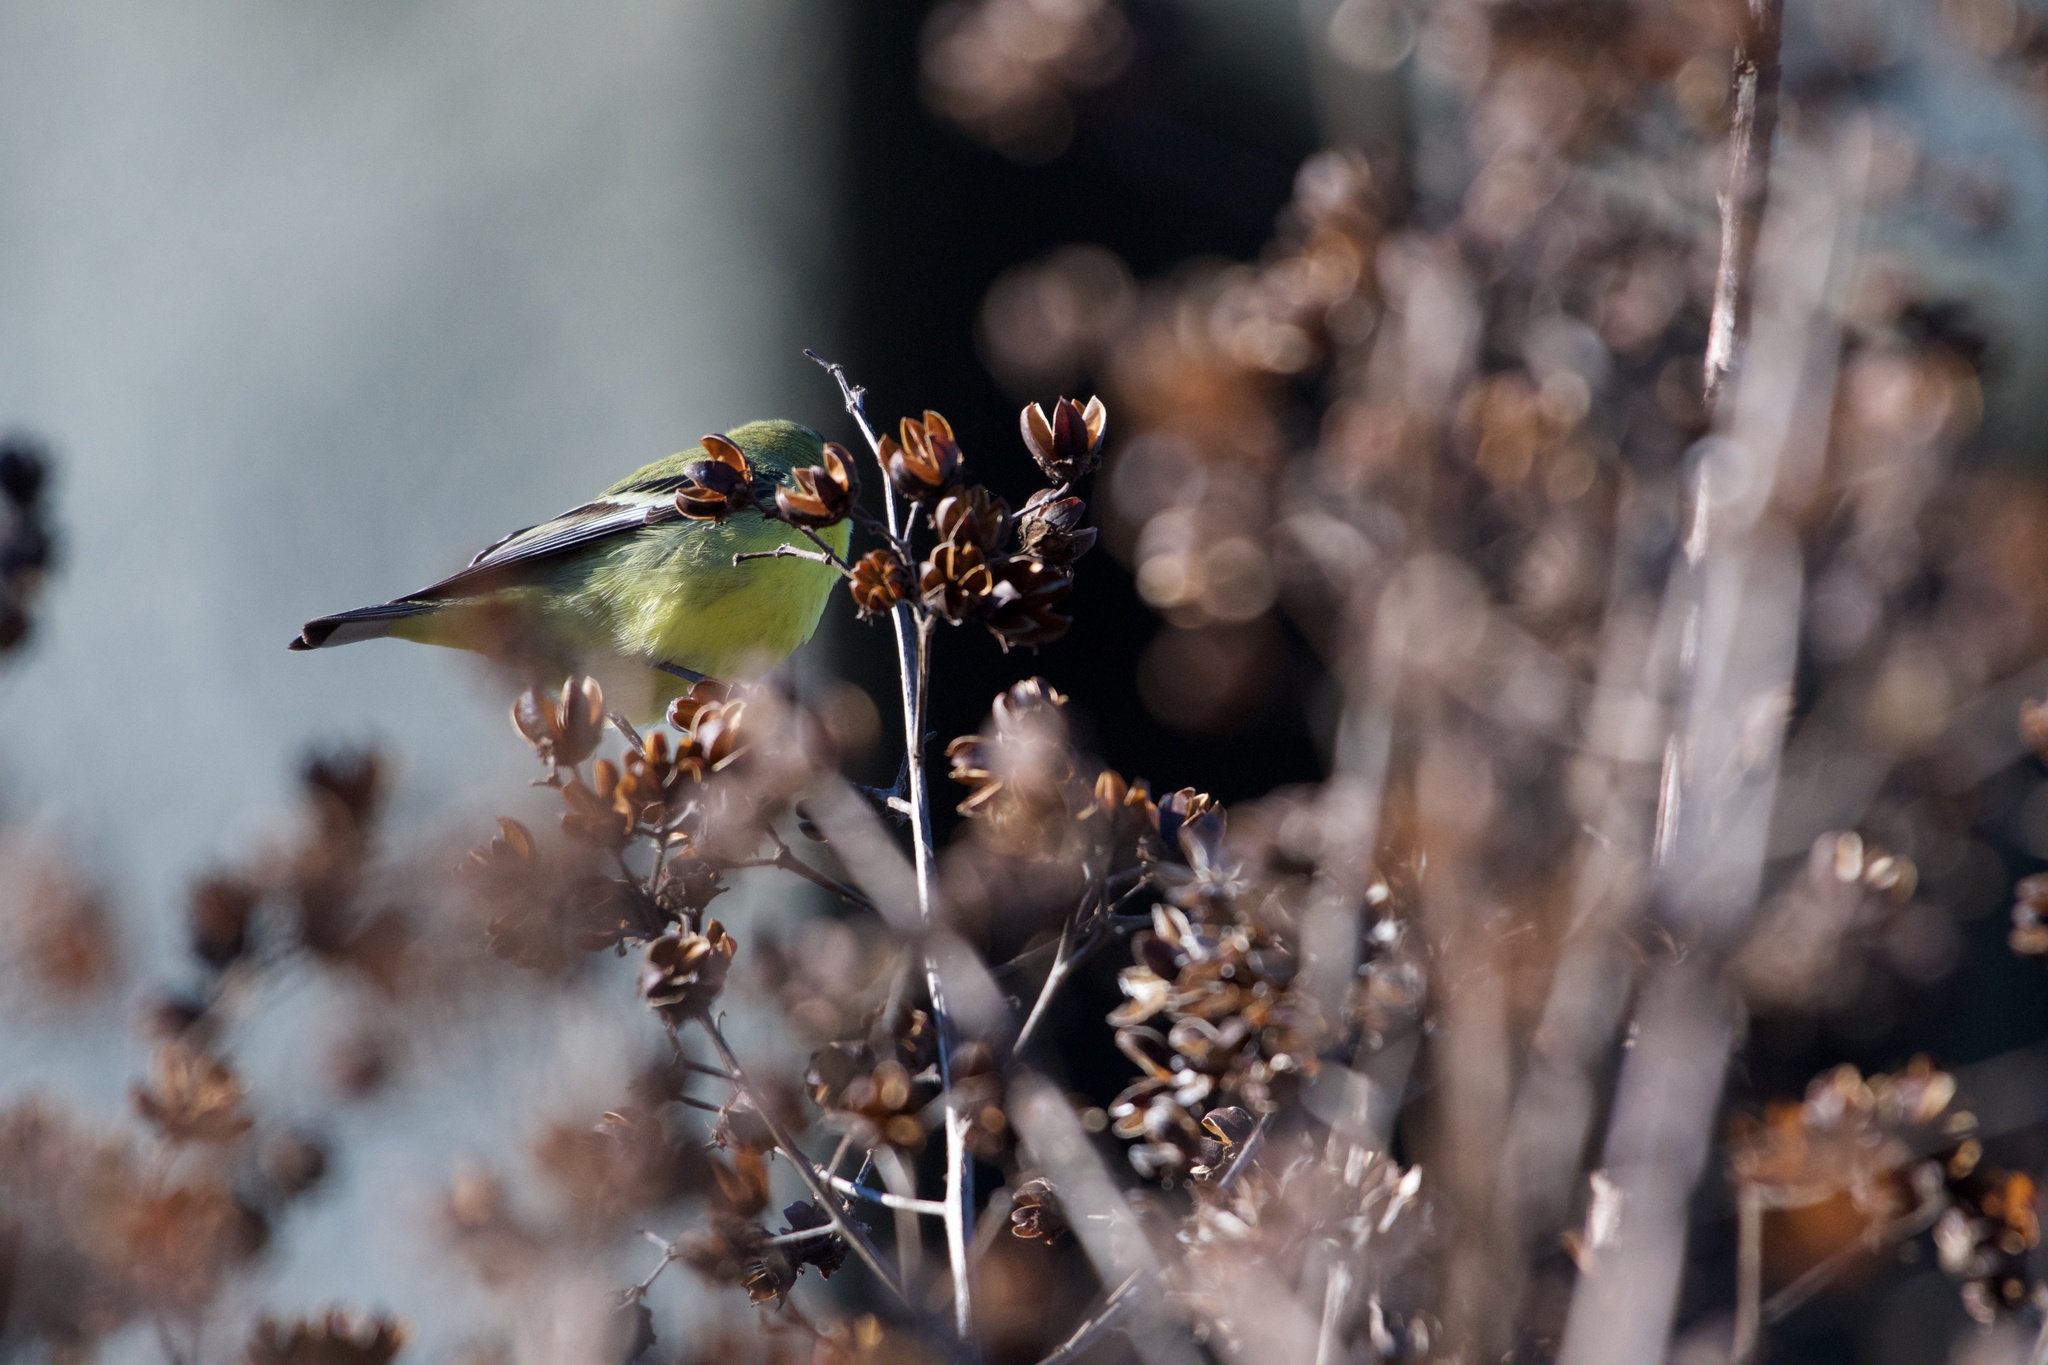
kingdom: Animalia
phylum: Chordata
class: Aves
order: Passeriformes
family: Fringillidae
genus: Spinus
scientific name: Spinus psaltria
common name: Lesser goldfinch
